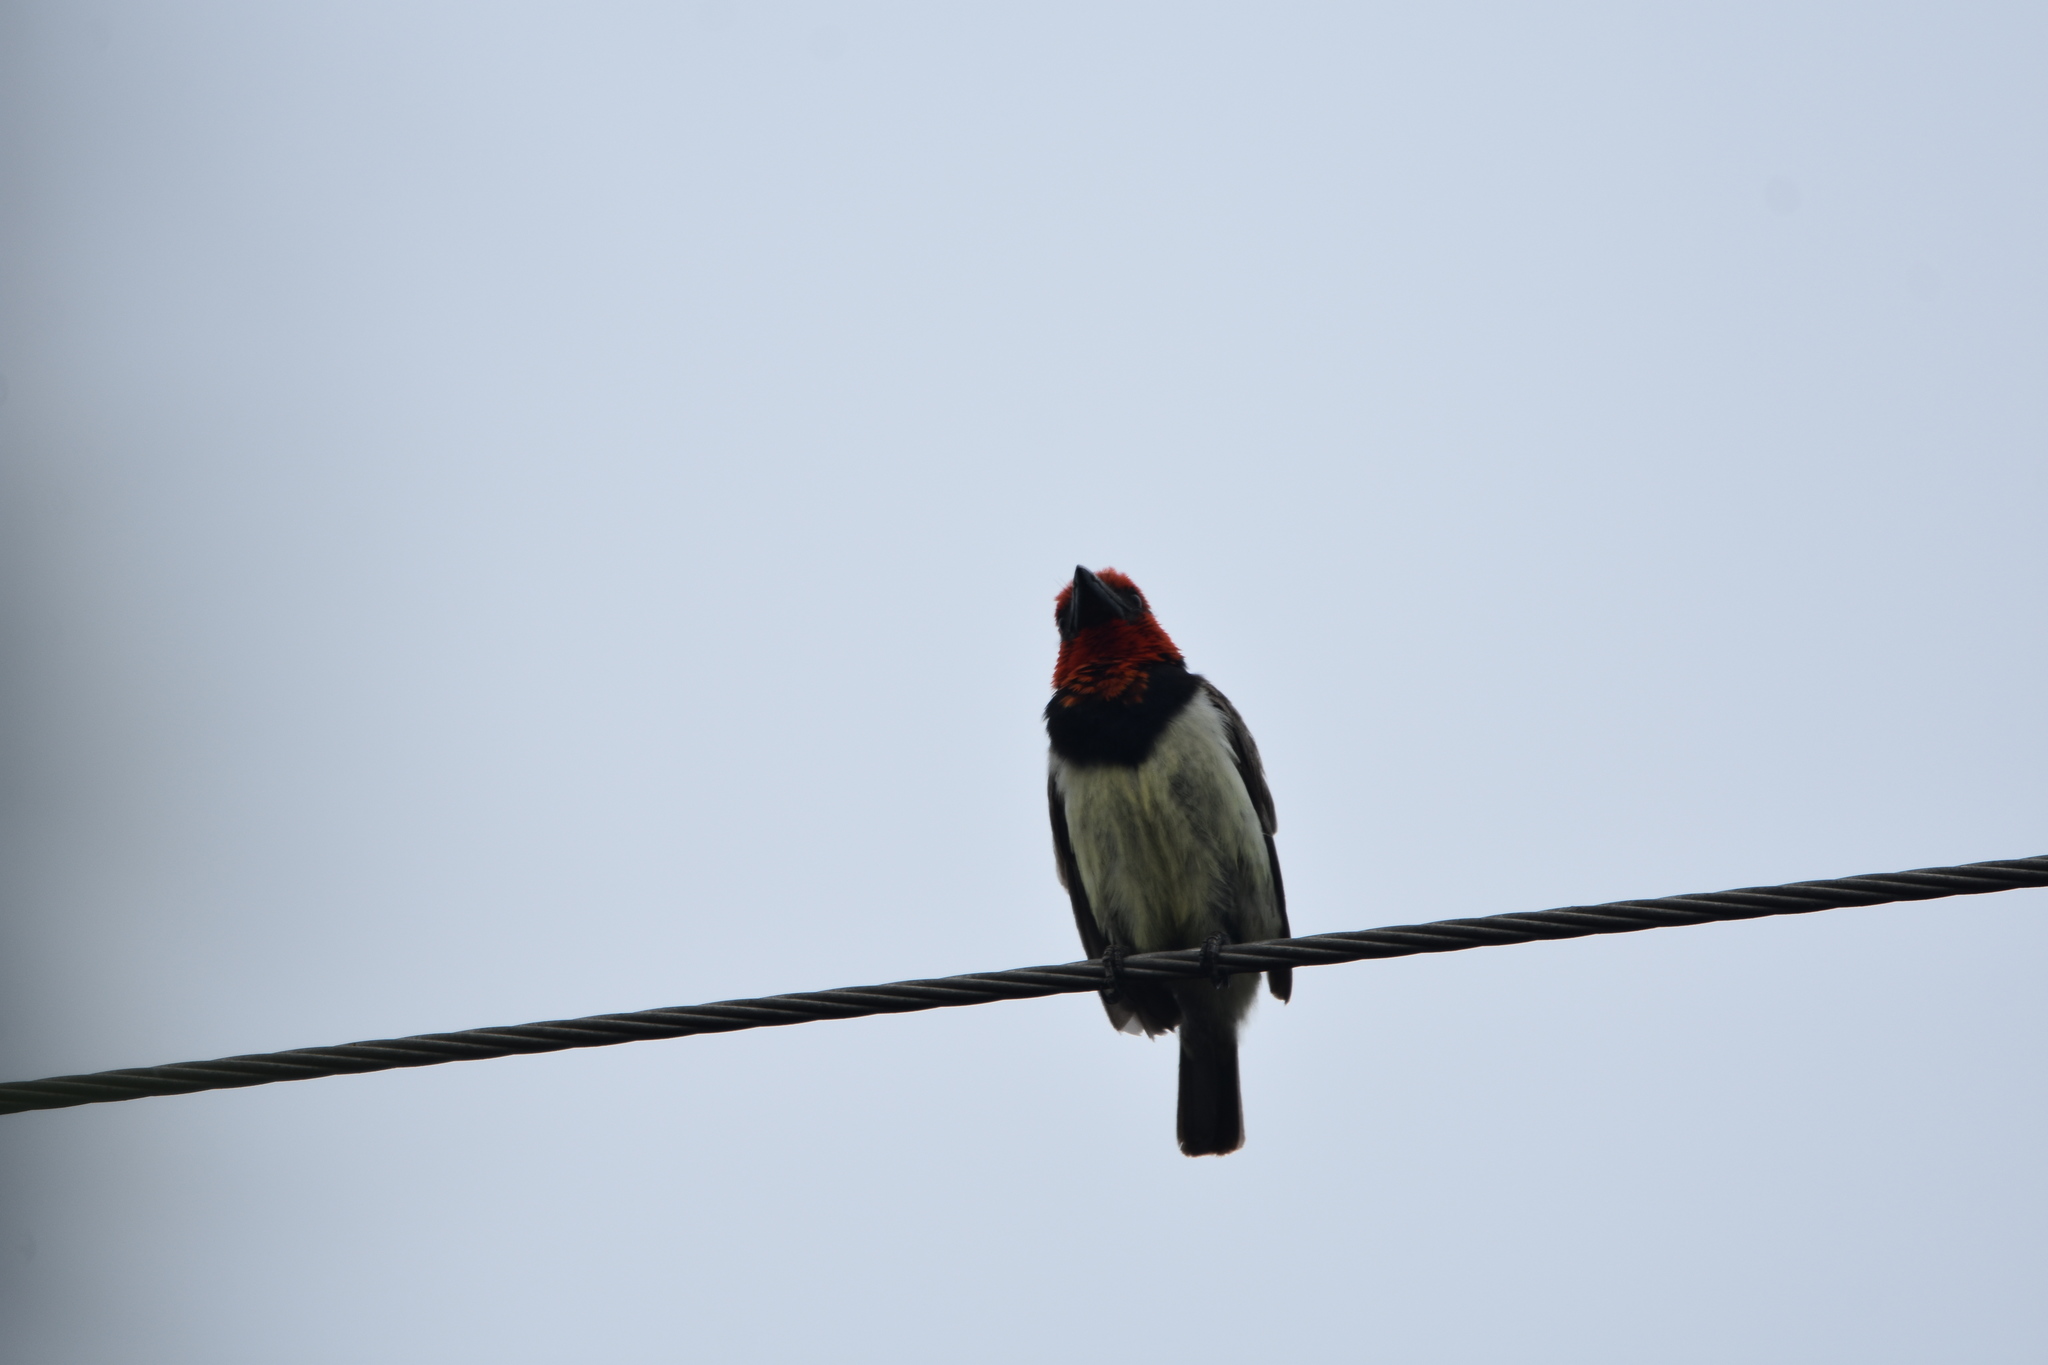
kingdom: Animalia
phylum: Chordata
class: Aves
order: Piciformes
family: Lybiidae
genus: Lybius
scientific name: Lybius torquatus
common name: Black-collared barbet
